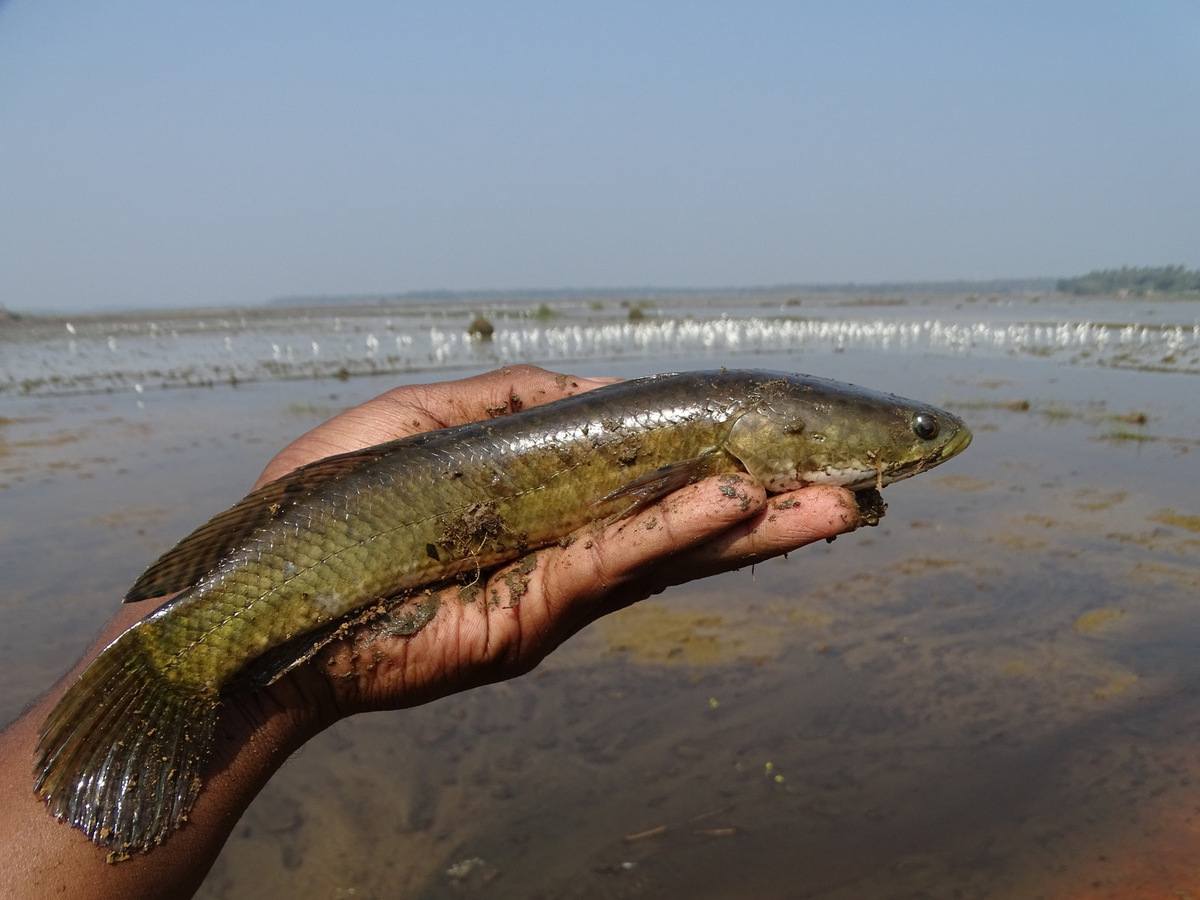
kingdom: Animalia
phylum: Chordata
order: Perciformes
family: Channidae
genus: Channa
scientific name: Channa striata
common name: Striped snakehead
